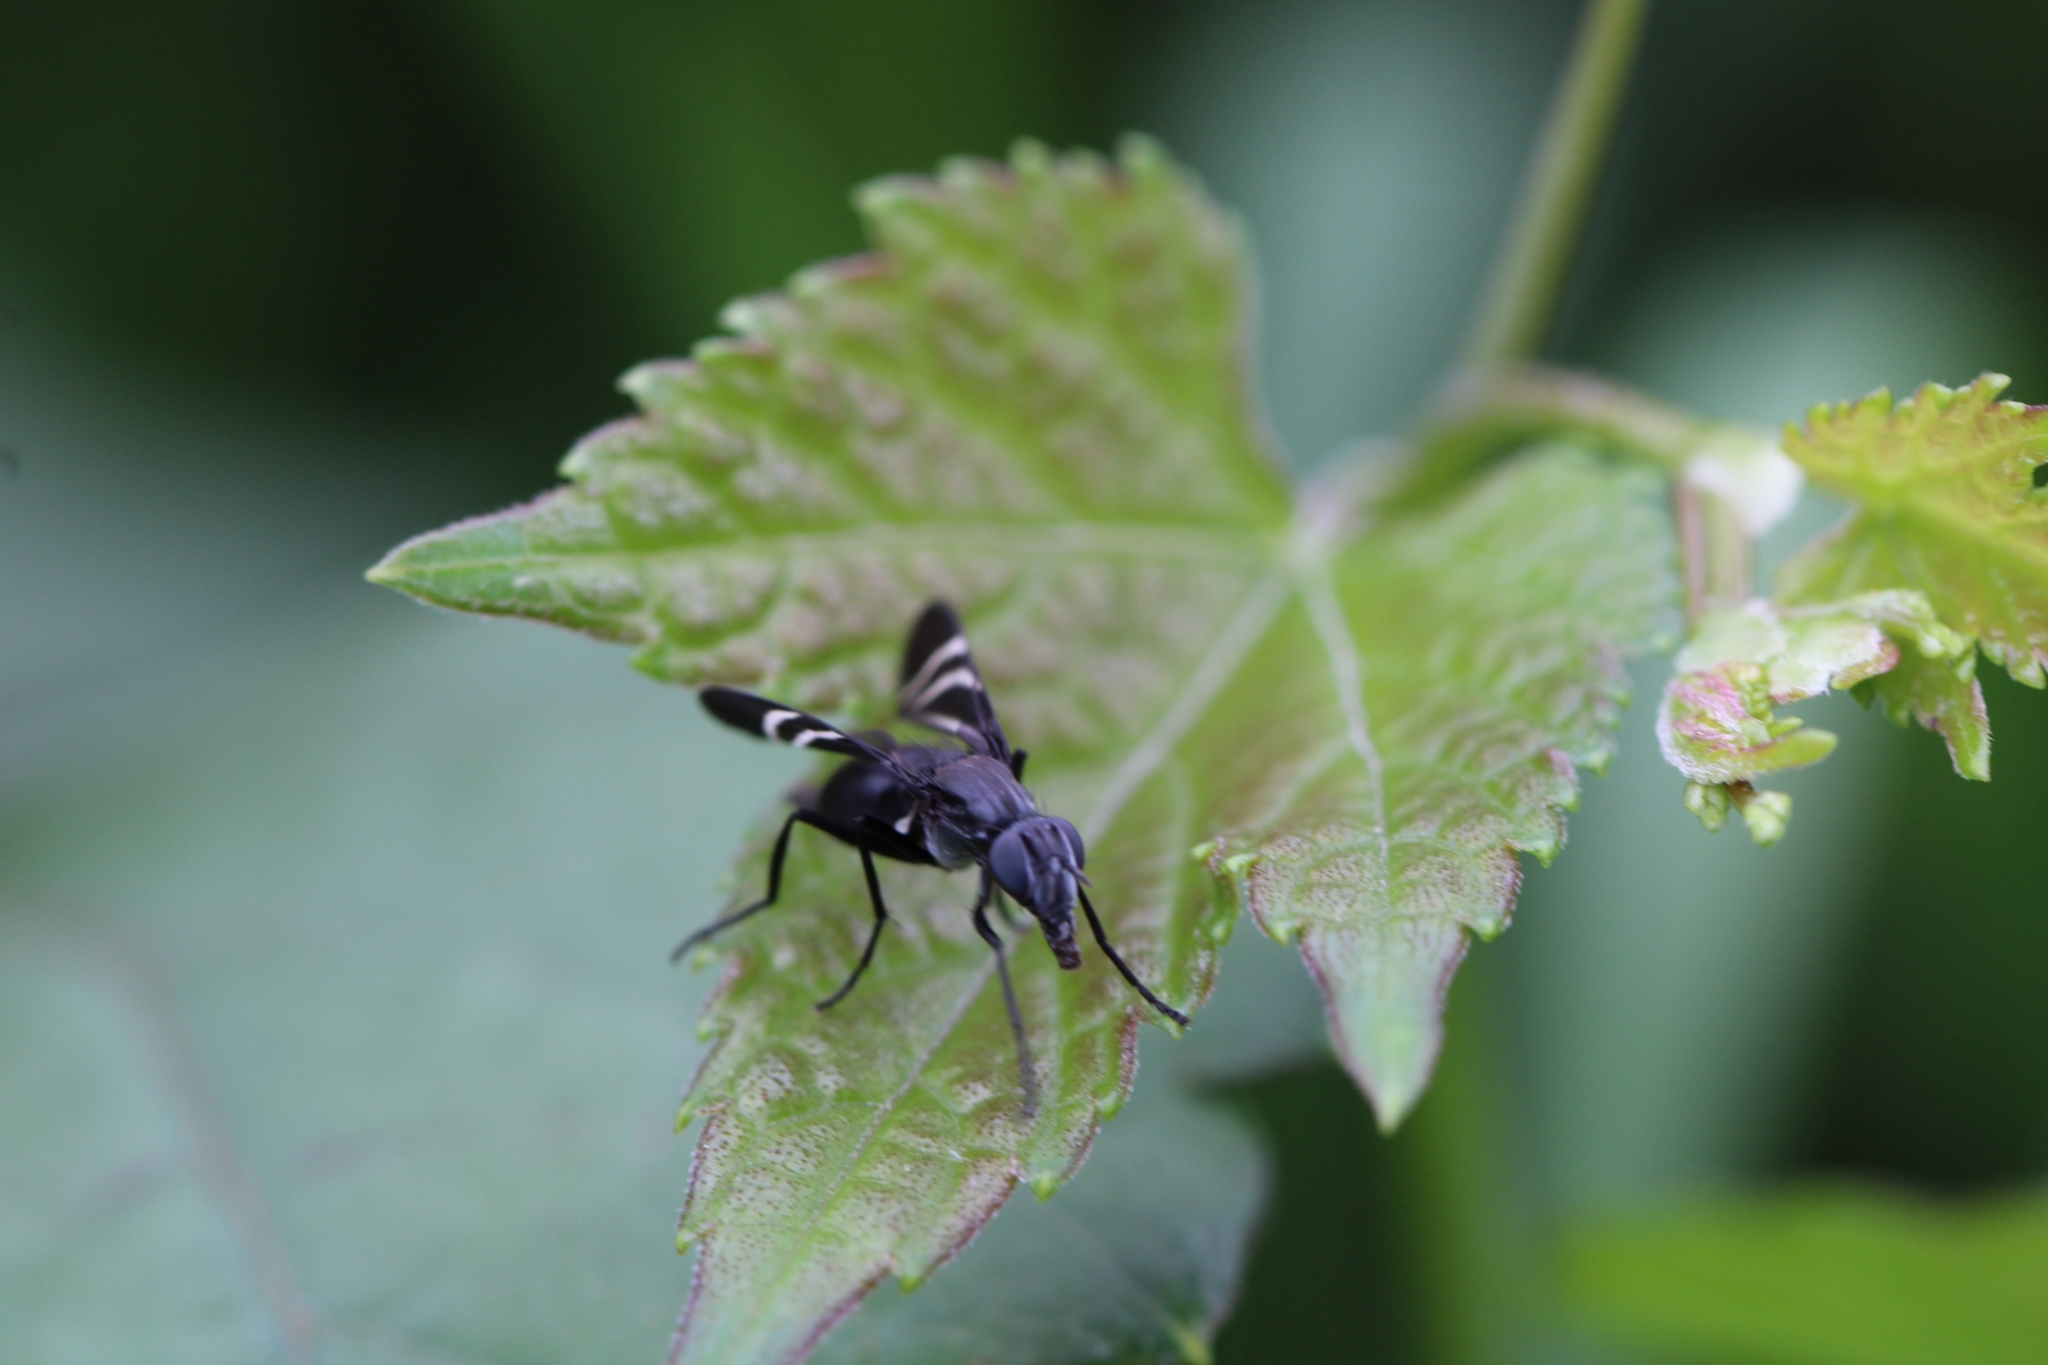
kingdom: Animalia
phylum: Arthropoda
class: Insecta
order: Diptera
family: Ulidiidae
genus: Tritoxa
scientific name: Tritoxa flexa
